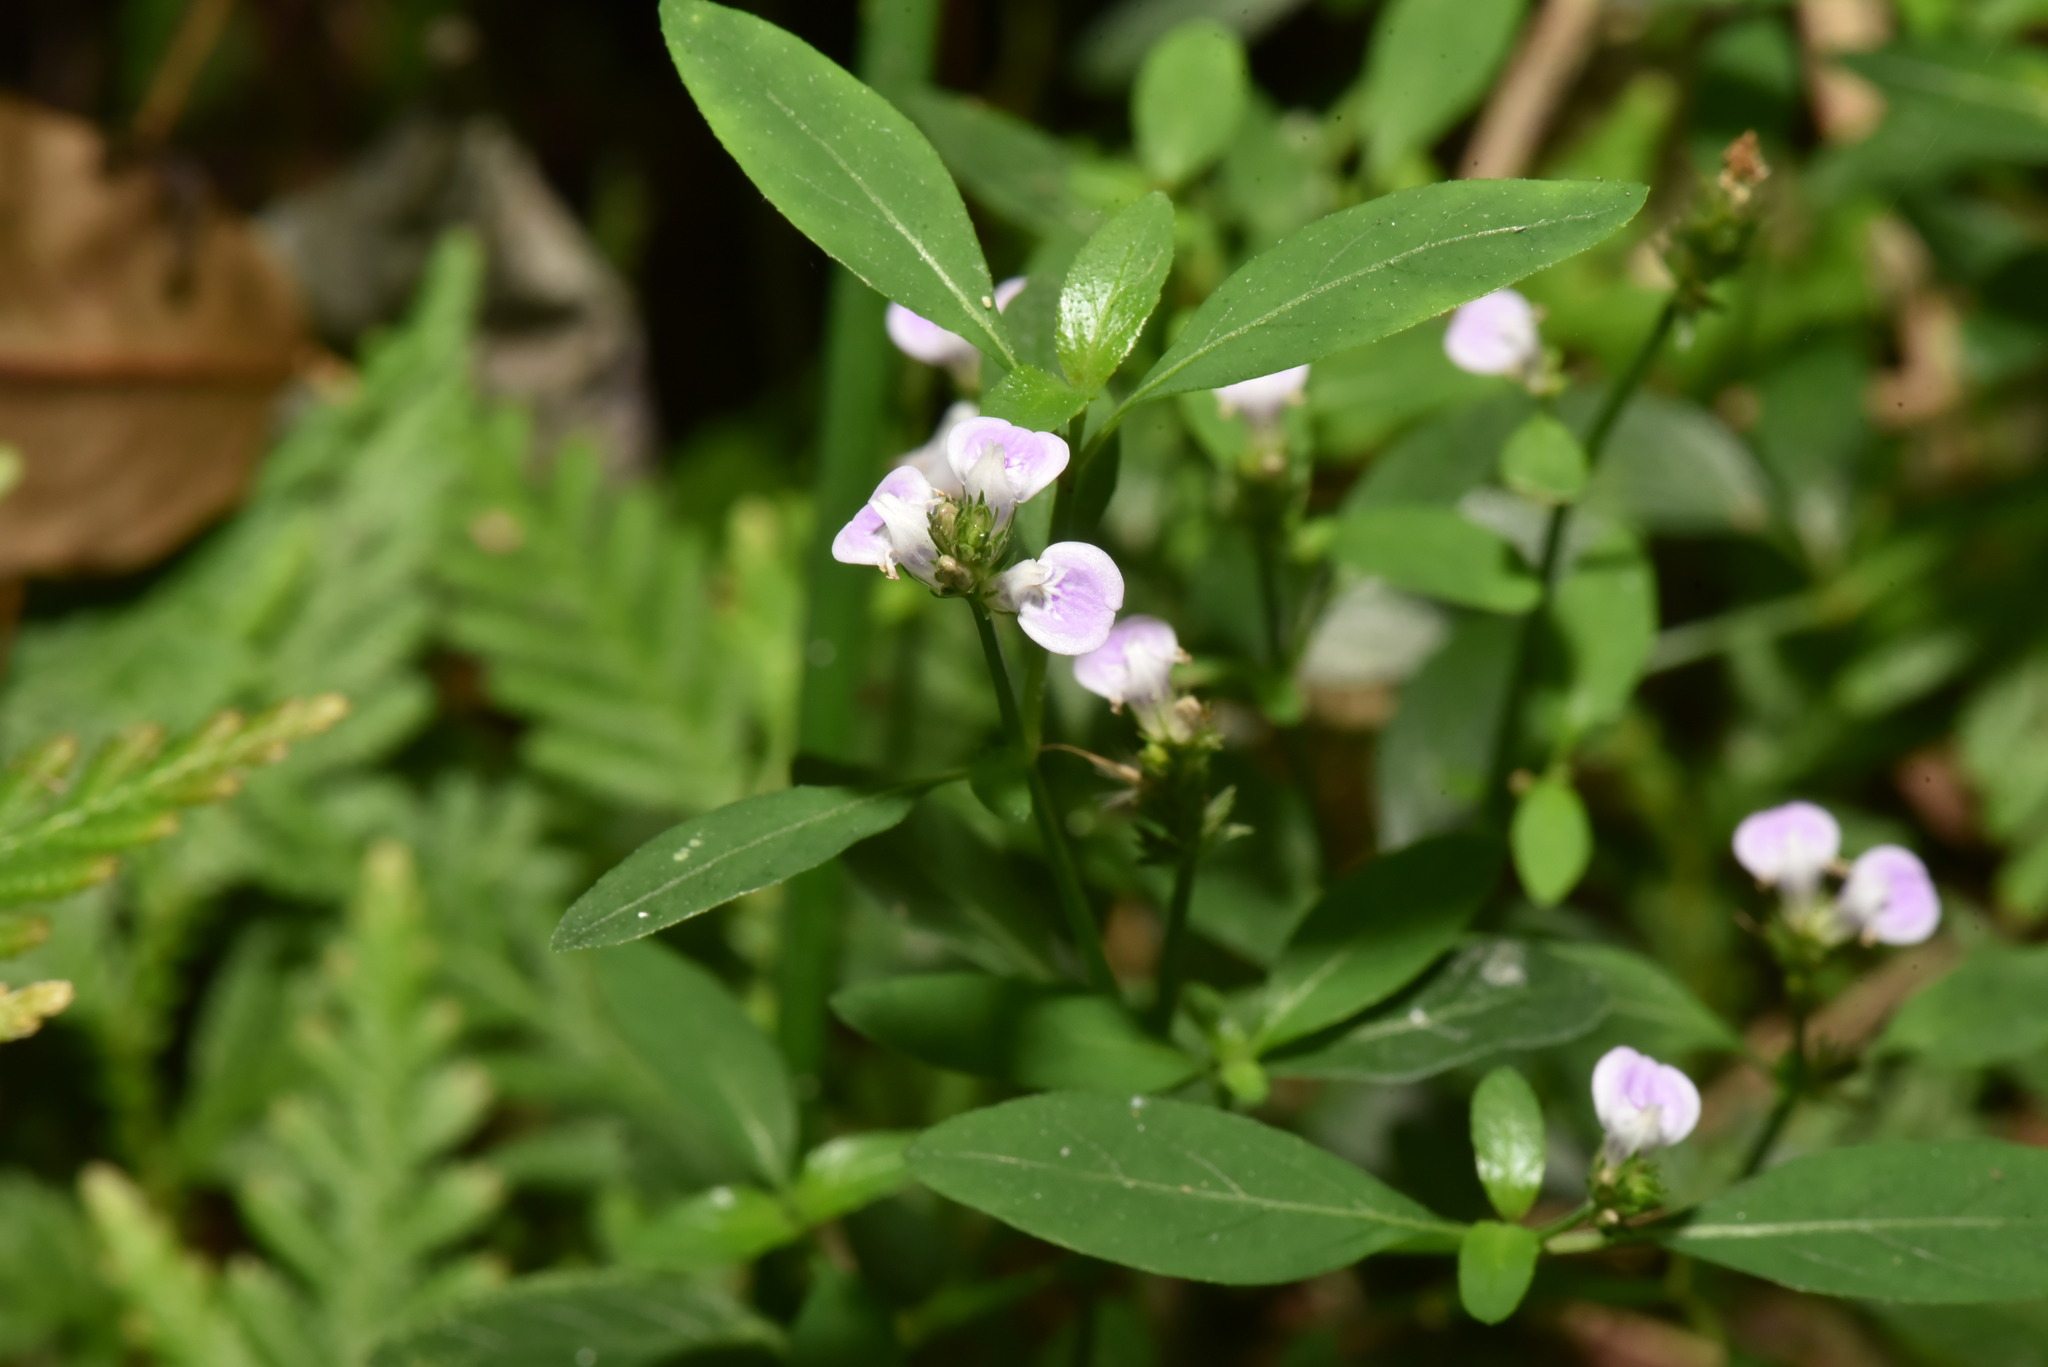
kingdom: Plantae
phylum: Tracheophyta
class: Magnoliopsida
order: Lamiales
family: Acanthaceae
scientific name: Acanthaceae
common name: Acanthaceae
